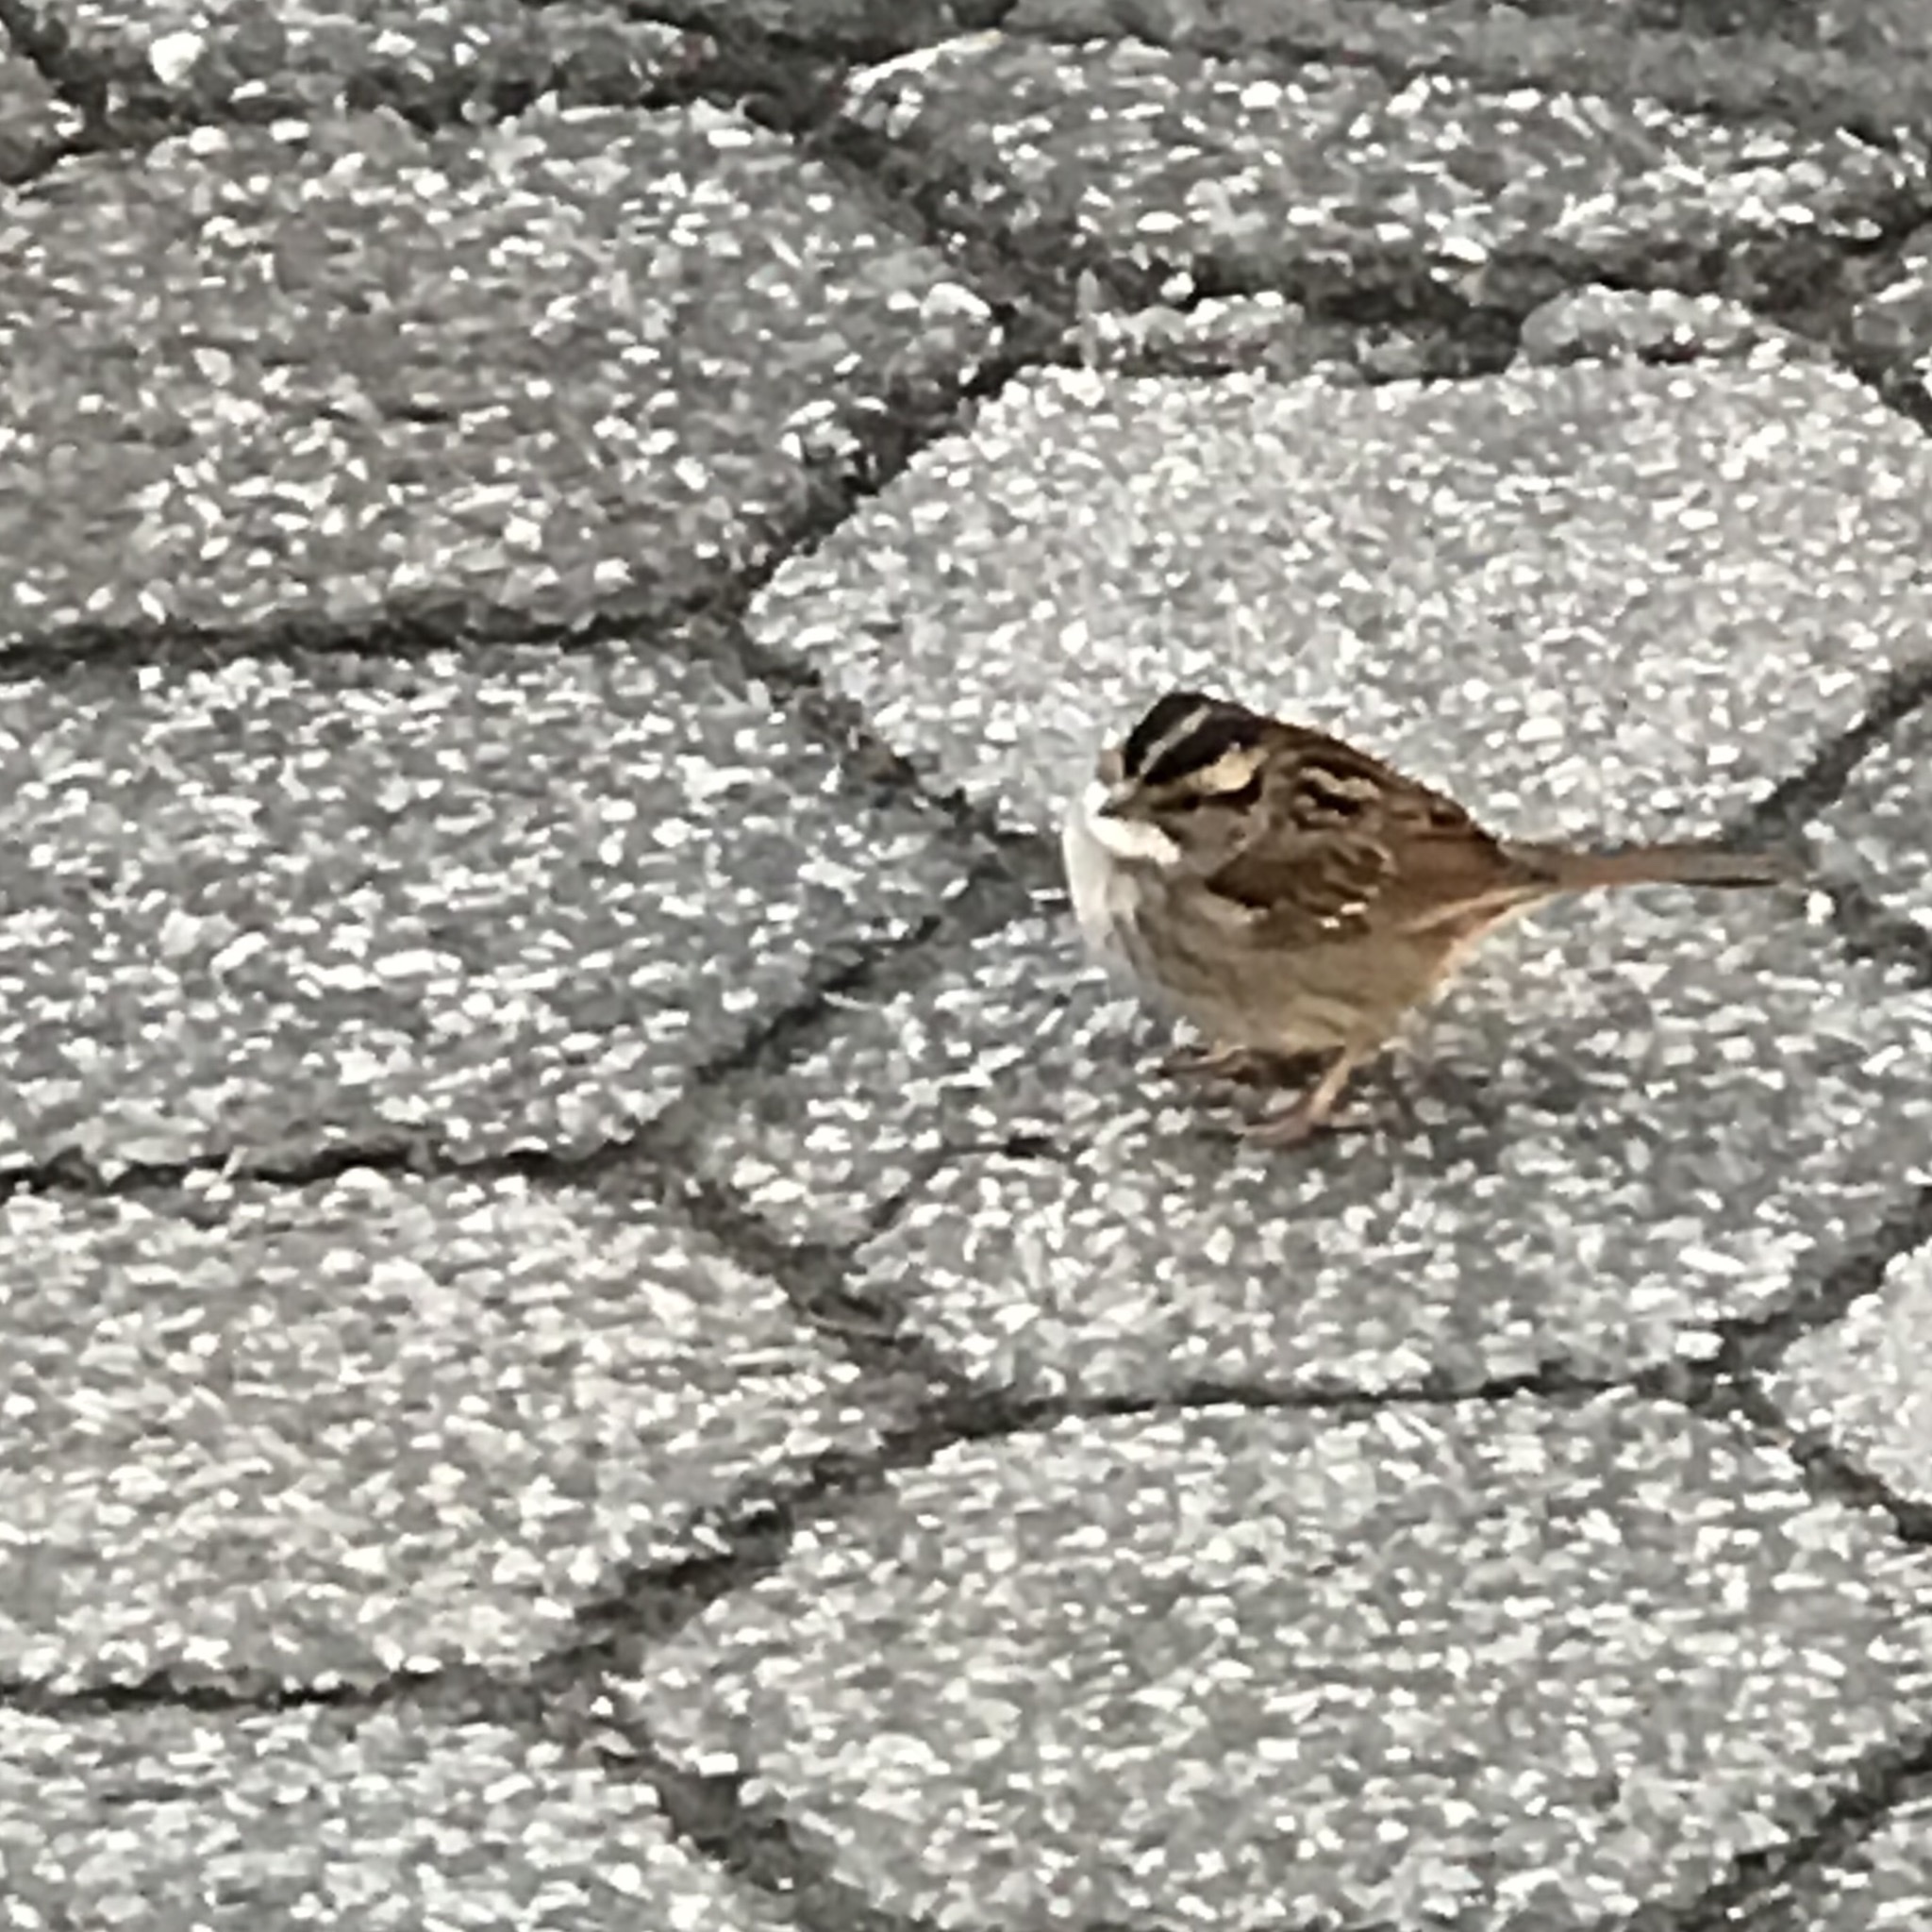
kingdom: Animalia
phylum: Chordata
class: Aves
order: Passeriformes
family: Passerellidae
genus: Zonotrichia
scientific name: Zonotrichia albicollis
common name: White-throated sparrow
